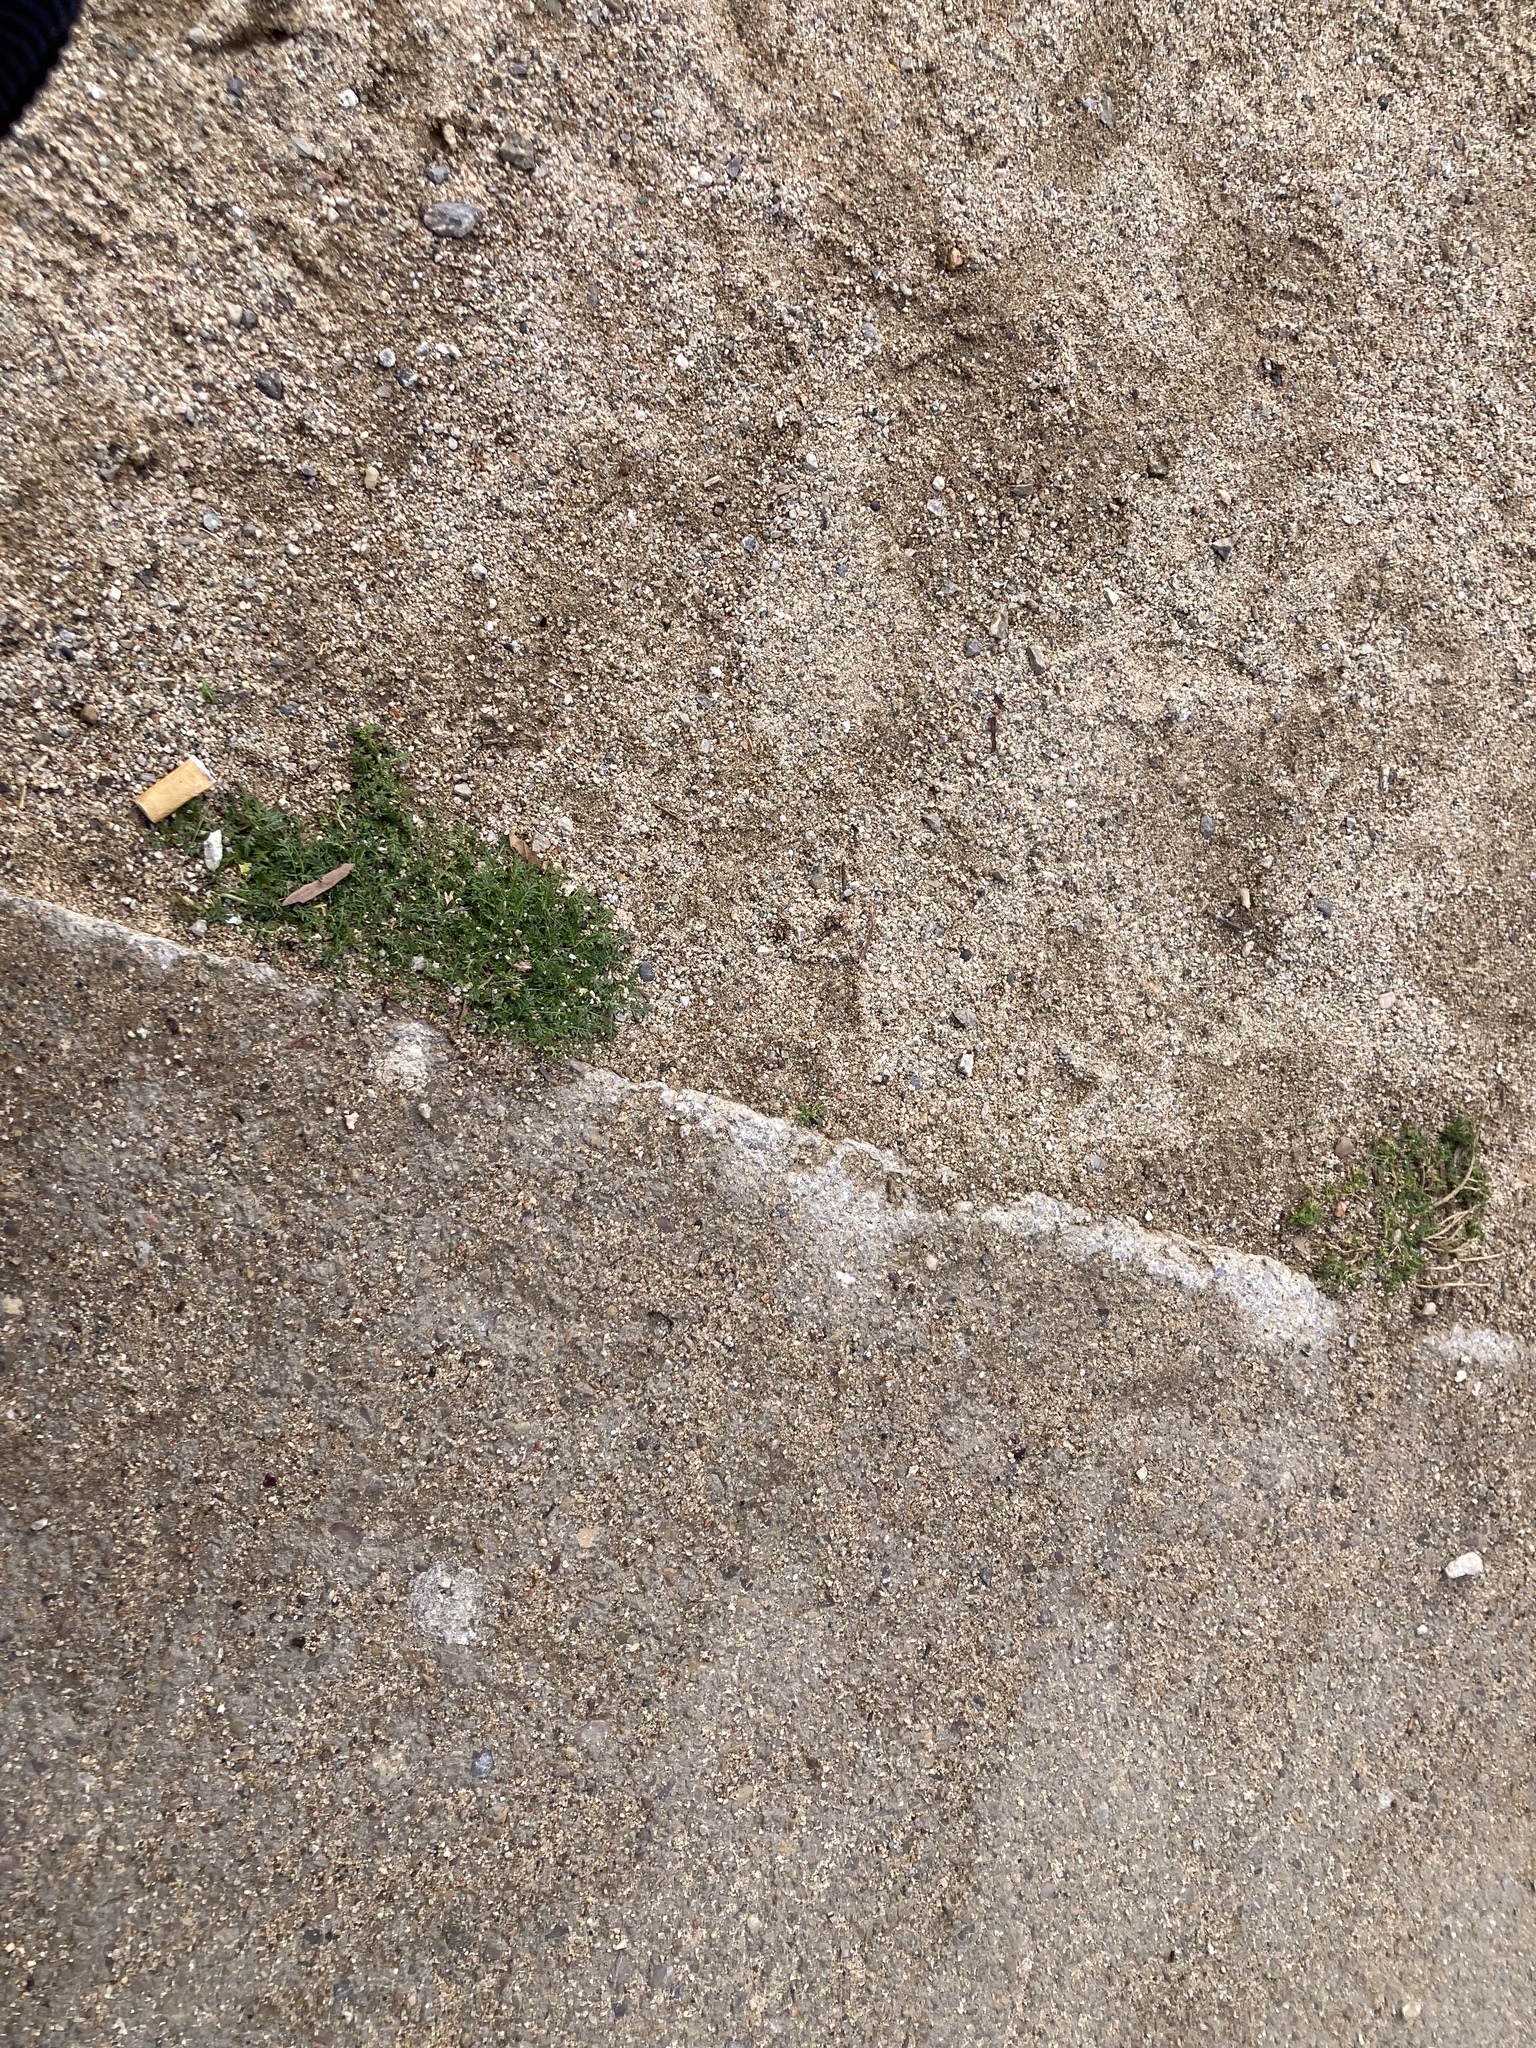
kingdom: Plantae
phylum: Tracheophyta
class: Magnoliopsida
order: Brassicales
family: Brassicaceae
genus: Lepidium
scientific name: Lepidium didymum
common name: Lesser swinecress
